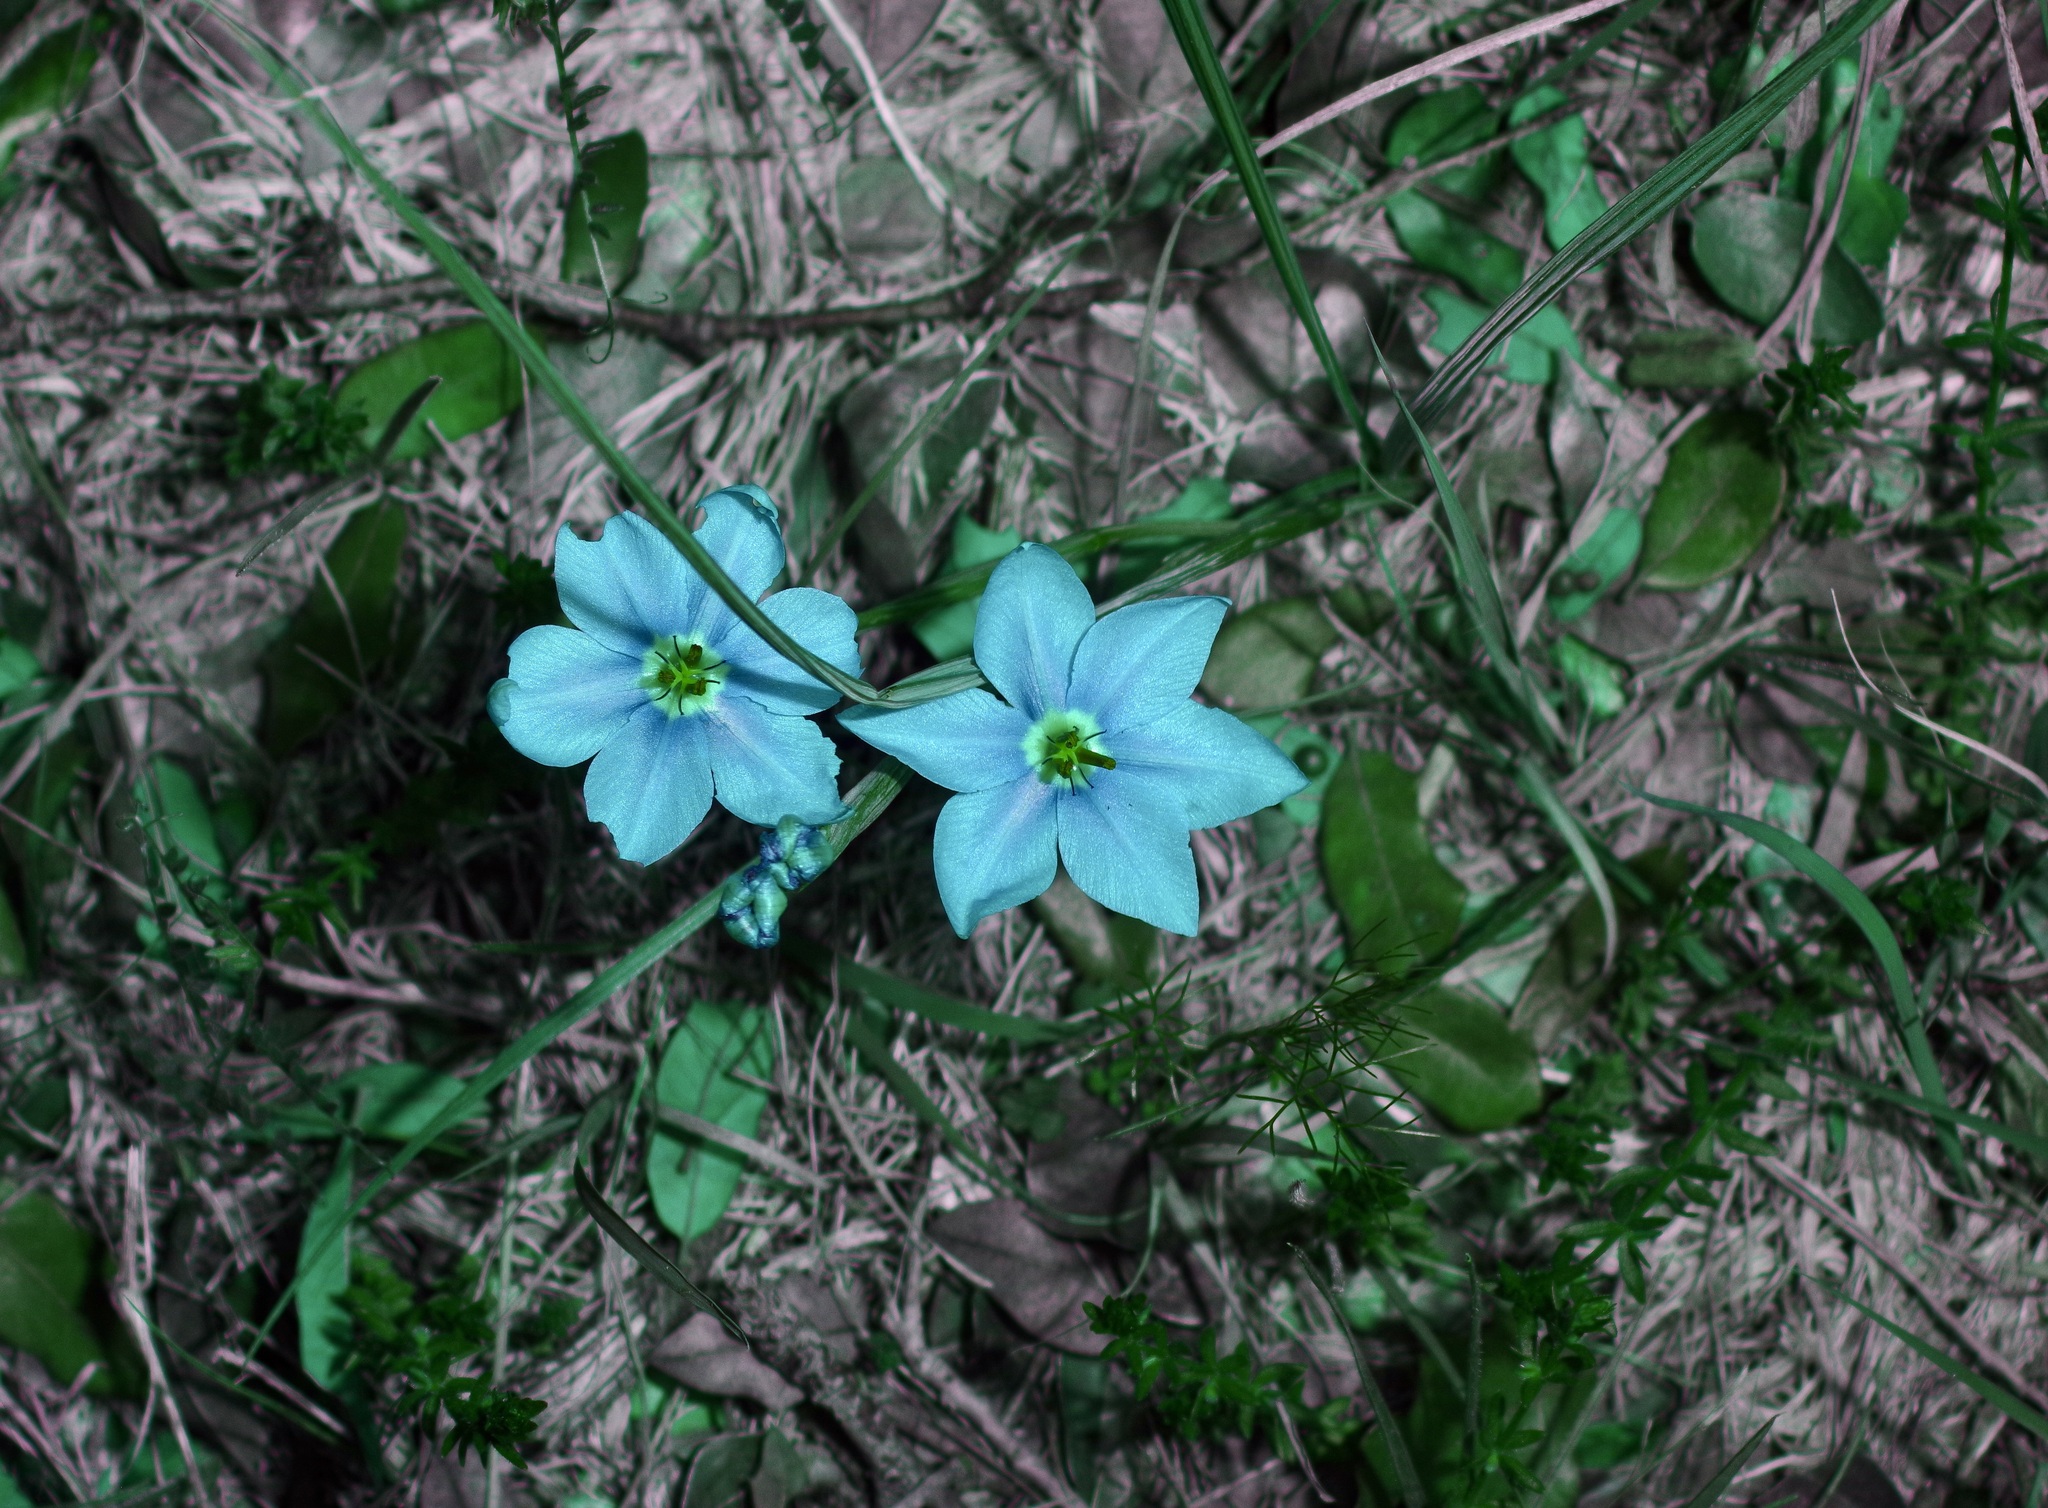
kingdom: Plantae
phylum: Tracheophyta
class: Liliopsida
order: Asparagales
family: Iridaceae
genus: Nemastylis
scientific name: Nemastylis geminiflora
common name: Prairie celestial
